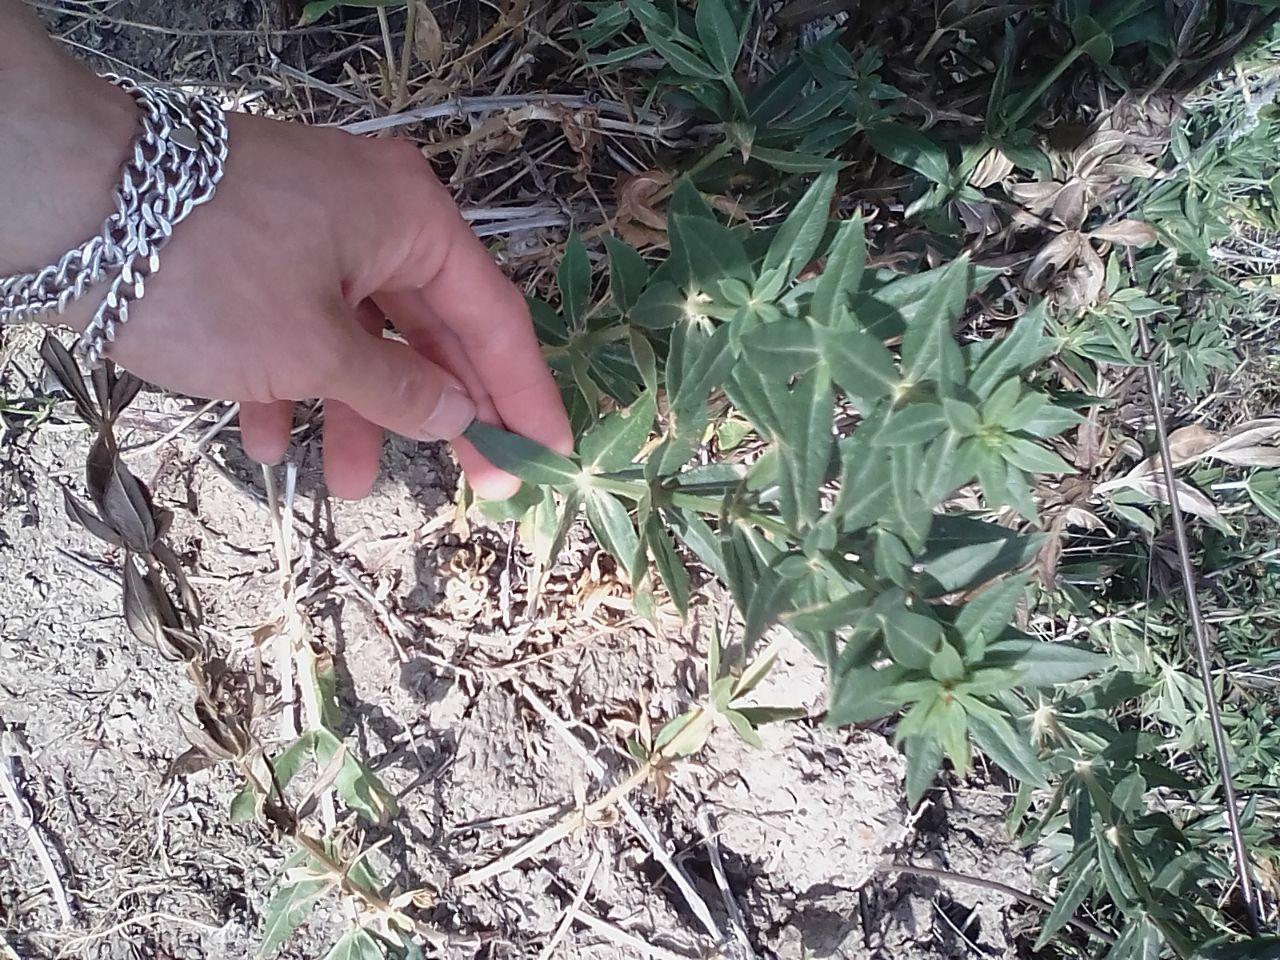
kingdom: Plantae
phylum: Tracheophyta
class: Magnoliopsida
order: Gentianales
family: Rubiaceae
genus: Galium
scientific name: Galium rubioides
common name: European bedstraw
